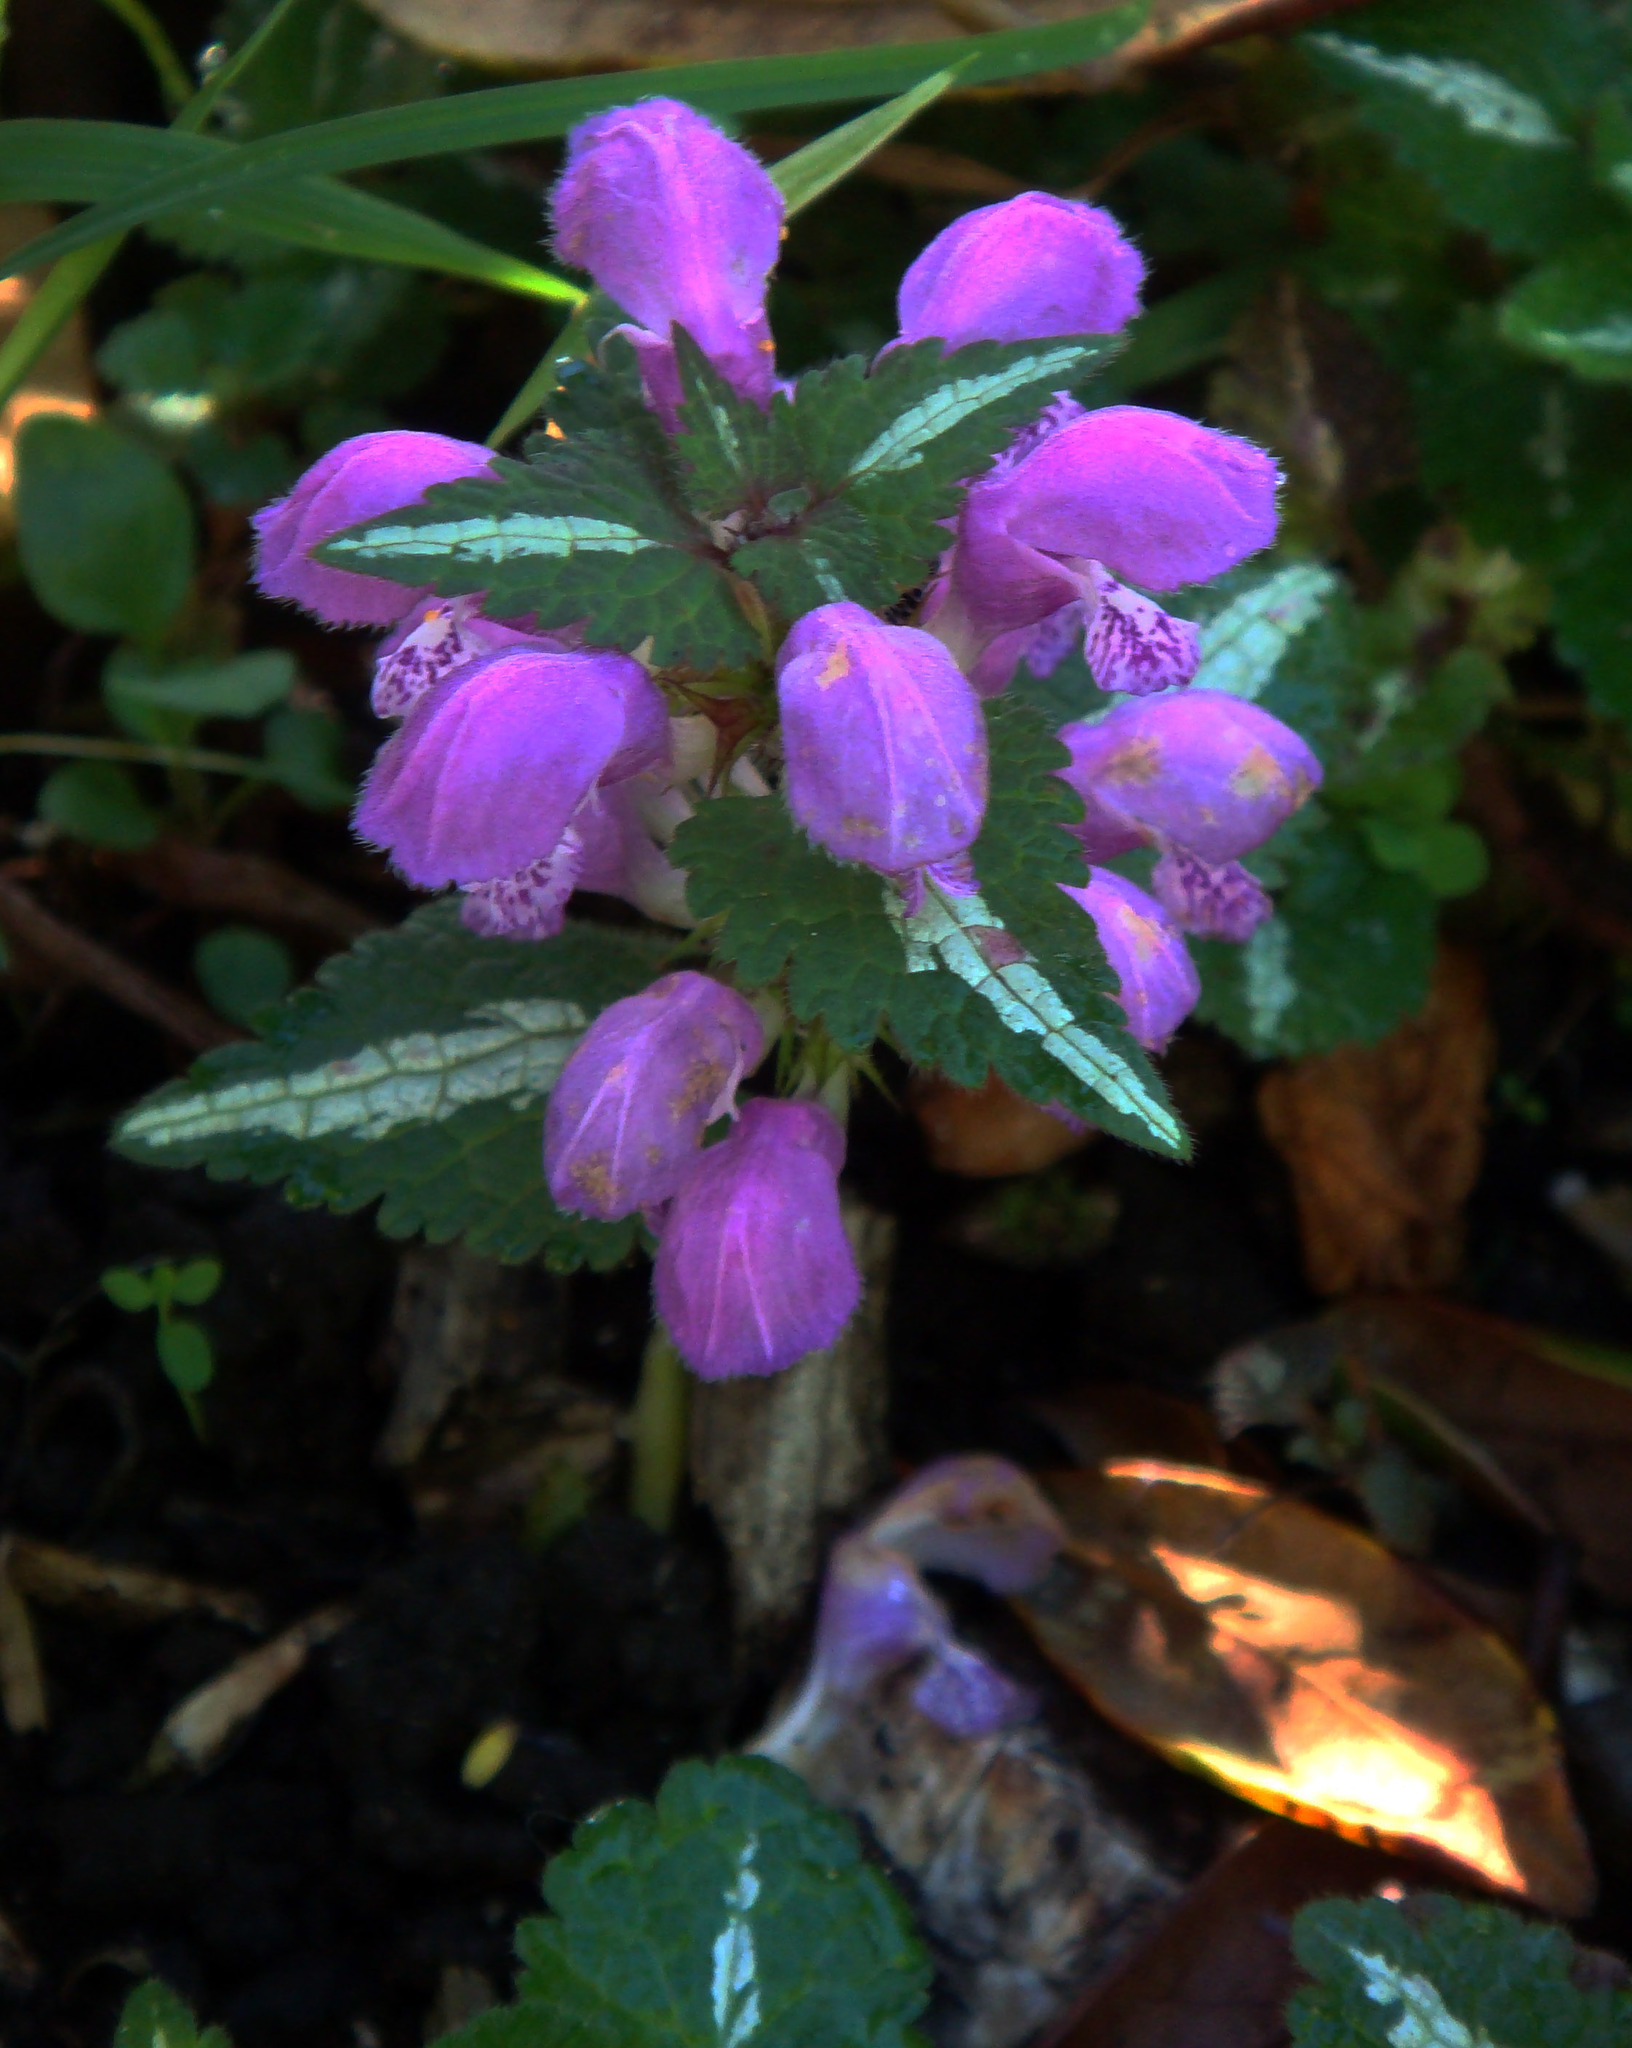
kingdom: Plantae
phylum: Tracheophyta
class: Magnoliopsida
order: Lamiales
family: Lamiaceae
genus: Lamium
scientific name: Lamium maculatum
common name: Spotted dead-nettle
